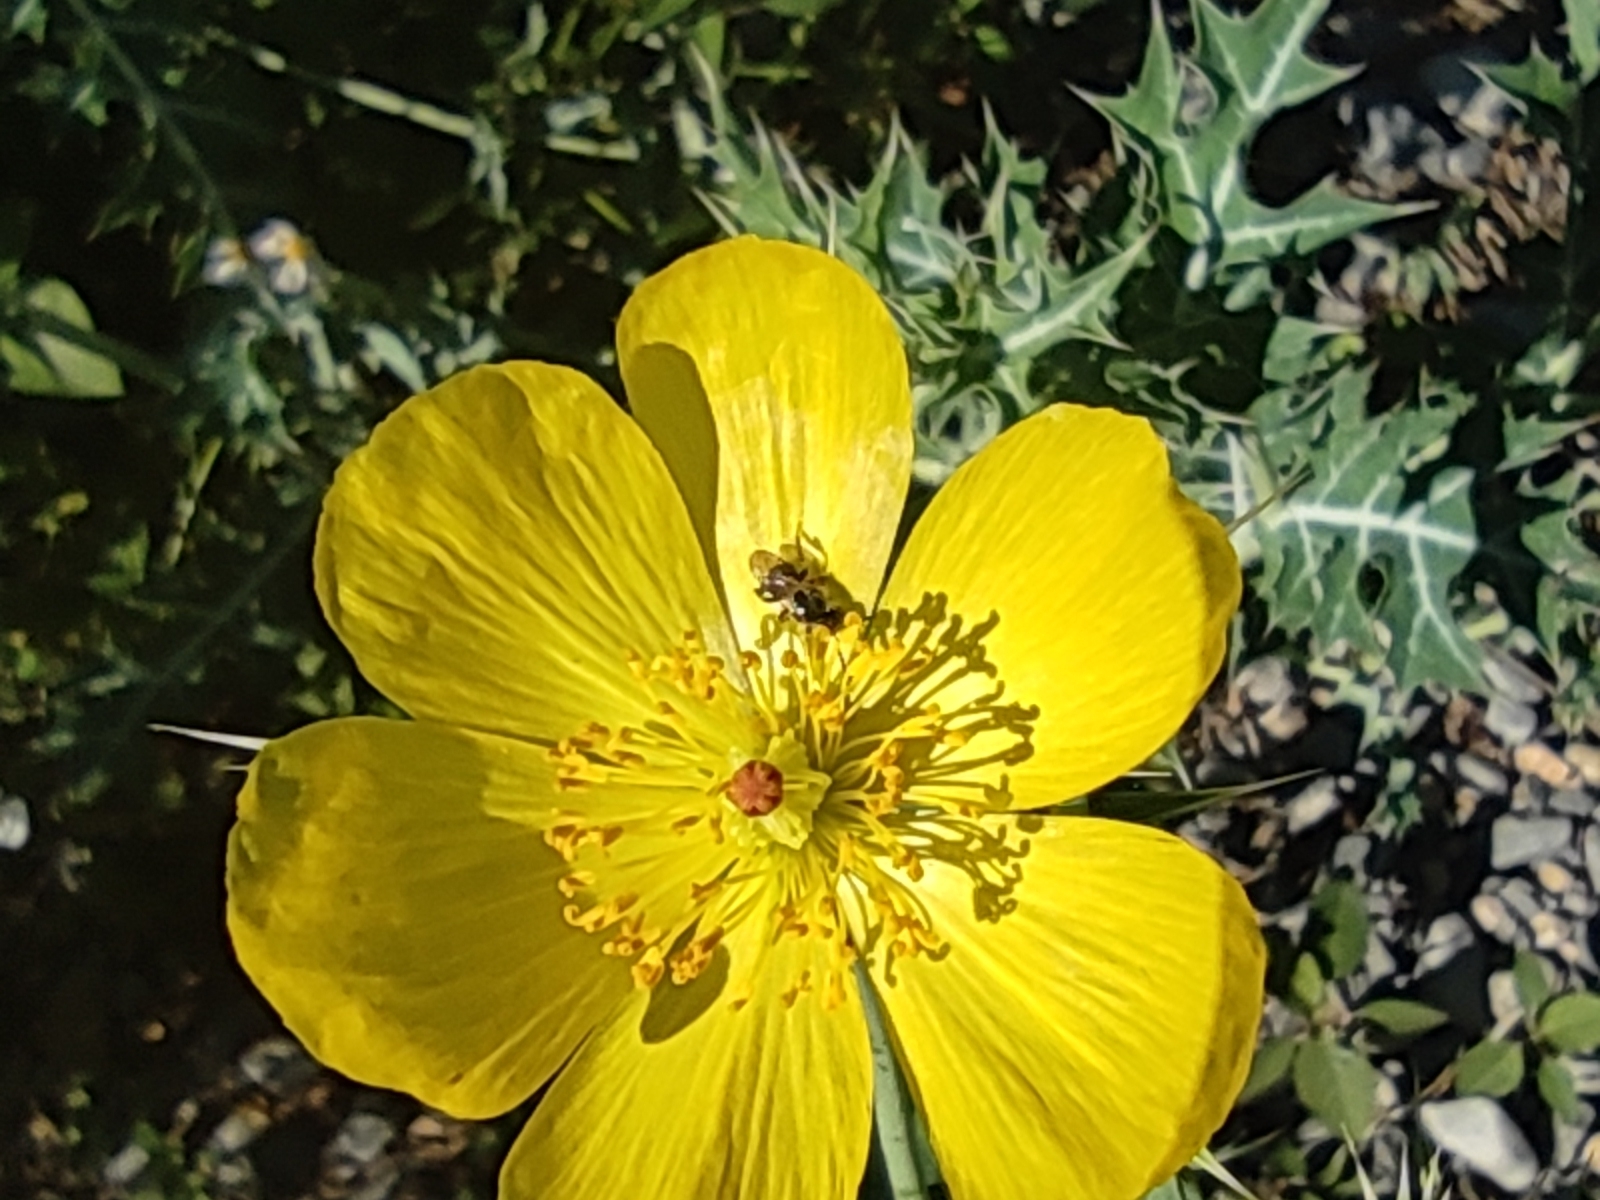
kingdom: Animalia
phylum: Arthropoda
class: Insecta
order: Hymenoptera
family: Apidae
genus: Plebeia
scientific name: Plebeia frontalis
